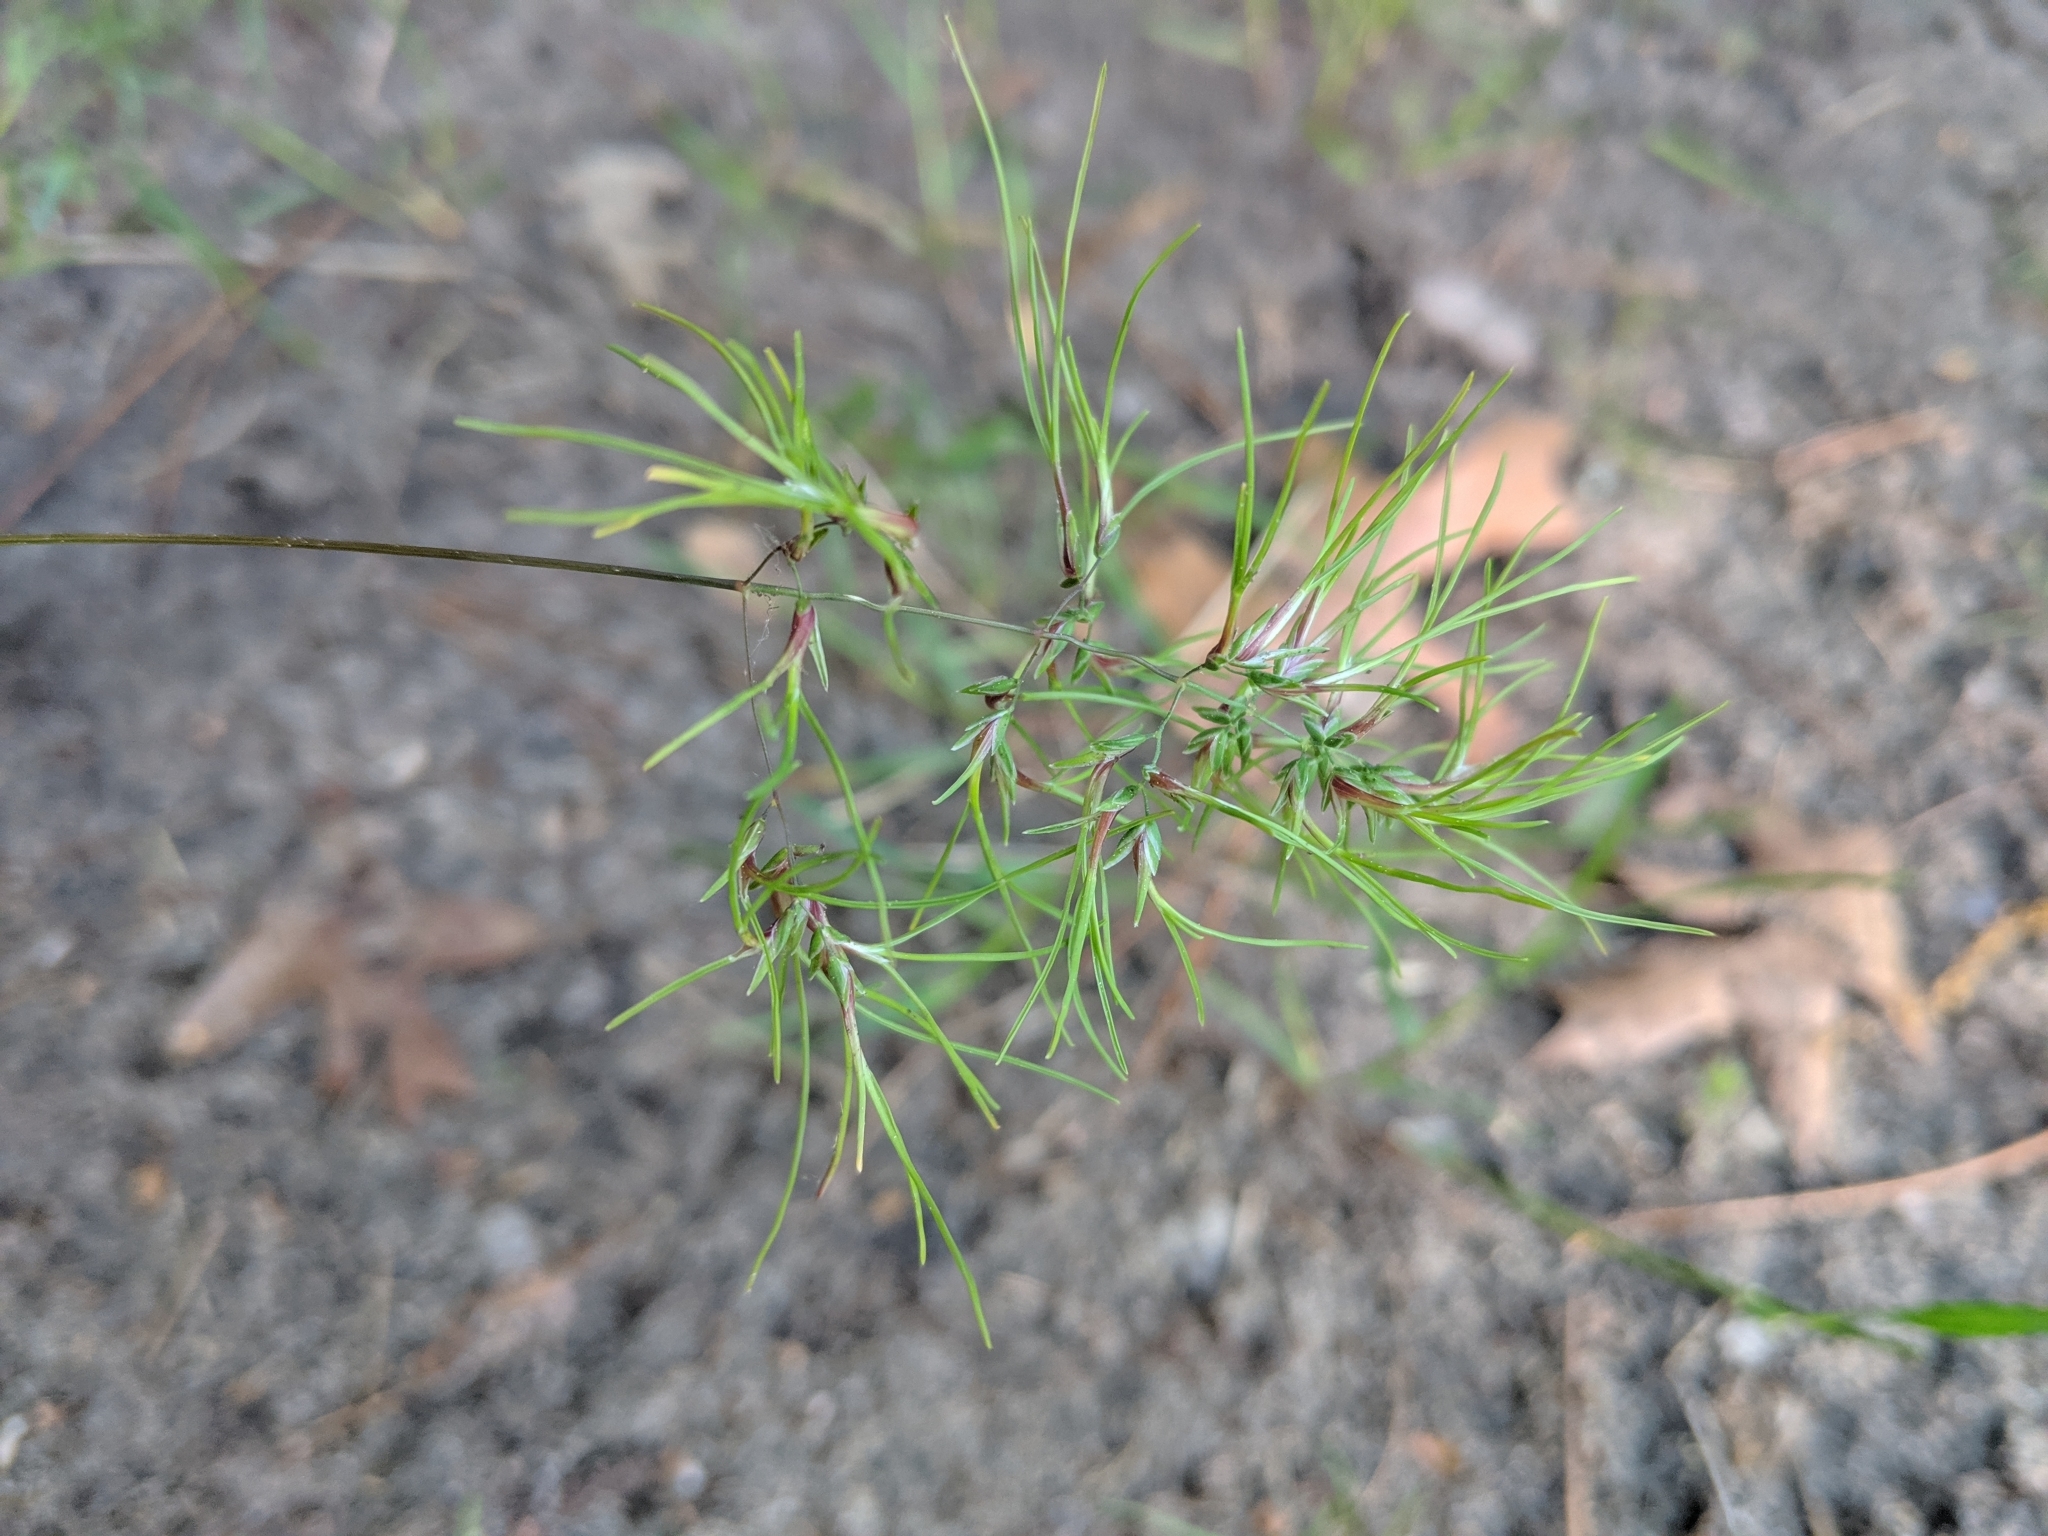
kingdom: Plantae
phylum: Tracheophyta
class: Liliopsida
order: Poales
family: Poaceae
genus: Poa
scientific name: Poa bulbosa
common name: Bulbous bluegrass
